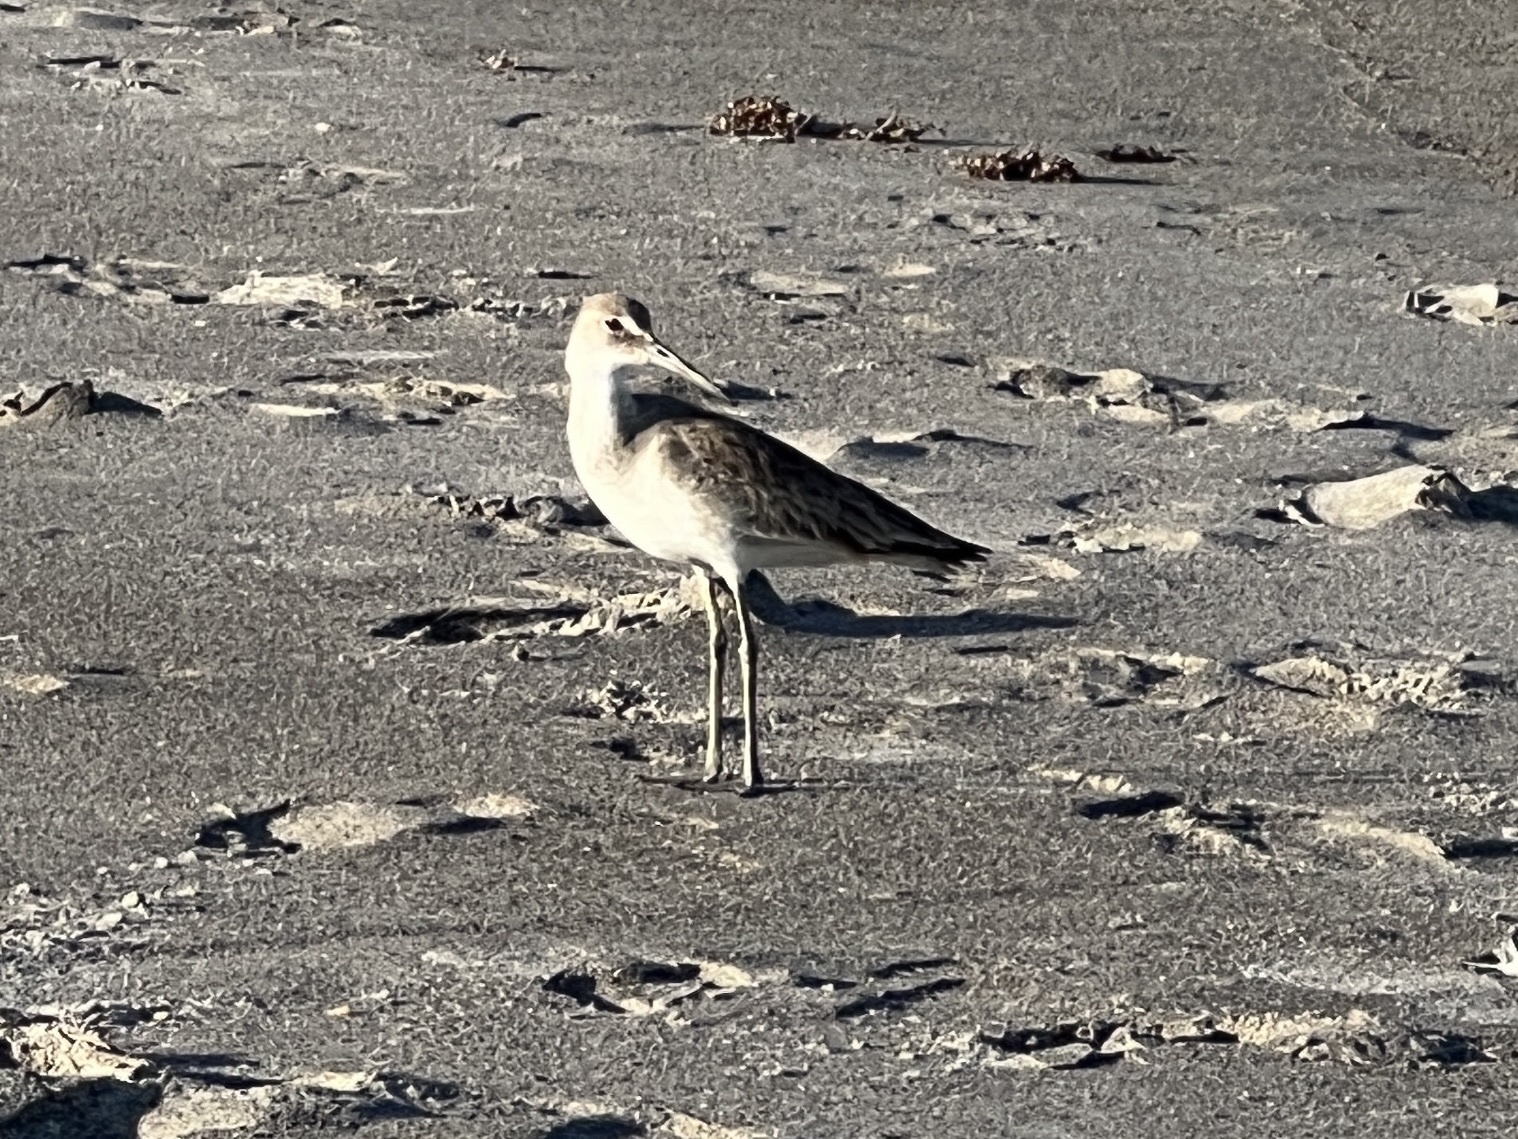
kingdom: Animalia
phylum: Chordata
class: Aves
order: Charadriiformes
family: Scolopacidae
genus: Tringa
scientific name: Tringa semipalmata
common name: Willet
